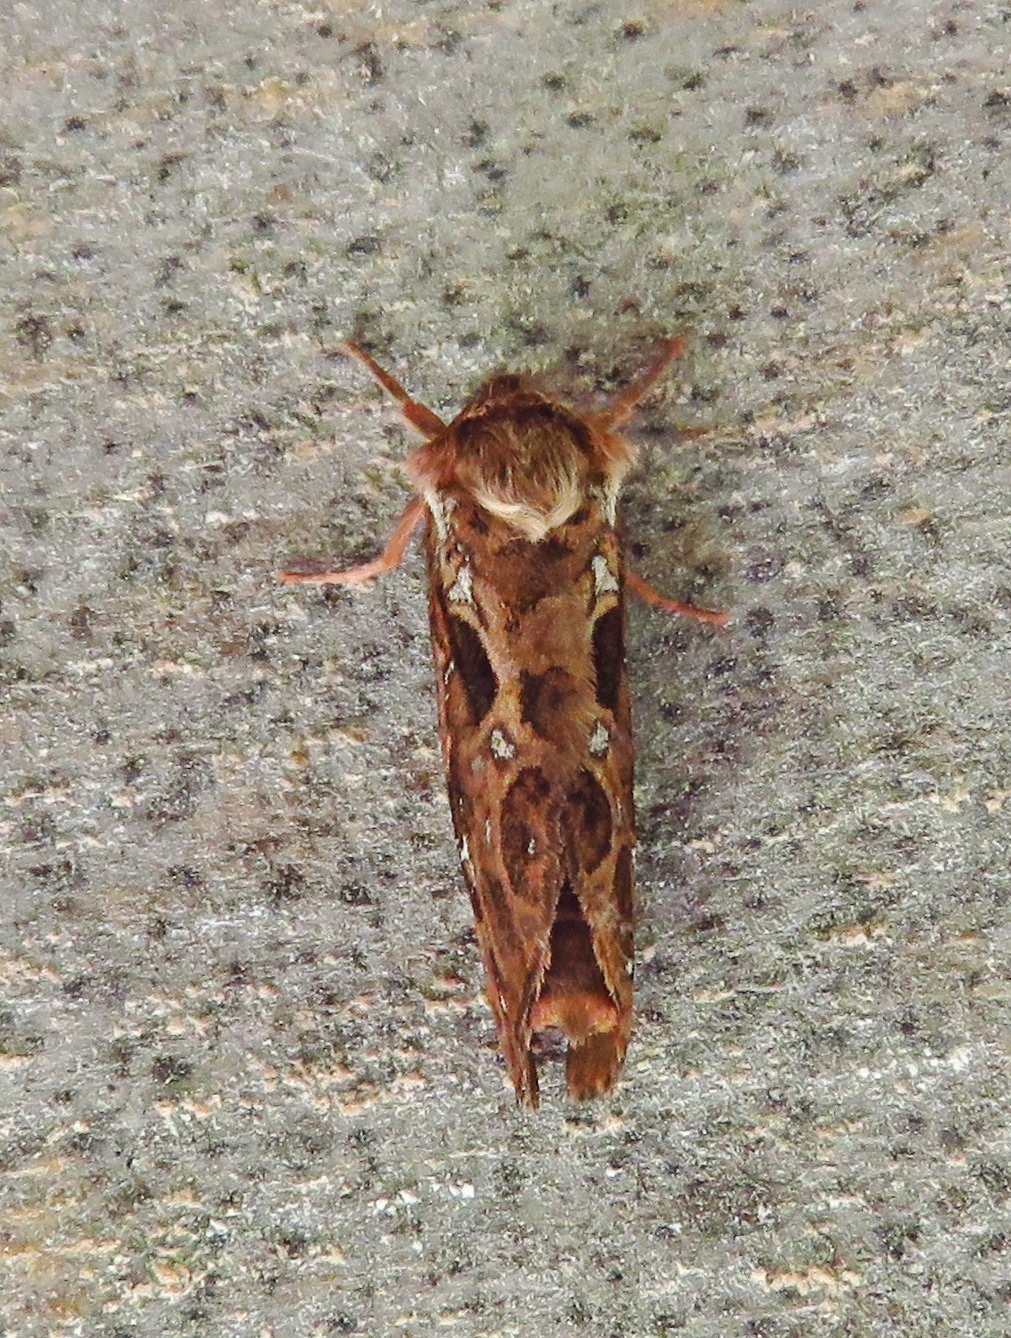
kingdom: Animalia
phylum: Arthropoda
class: Insecta
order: Lepidoptera
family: Hepialidae
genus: Korscheltellus
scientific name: Korscheltellus fusconebulosus
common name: Map-winged swift
